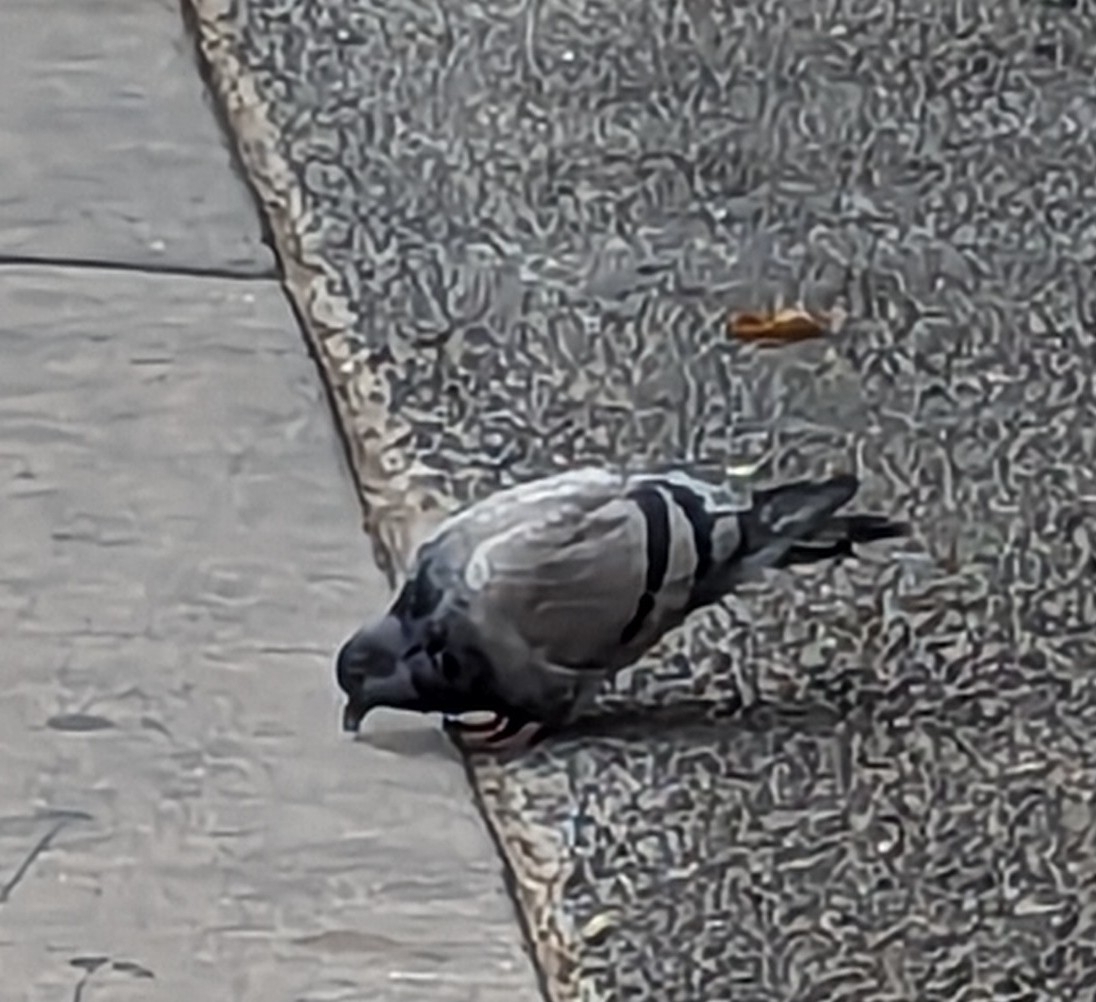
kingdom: Animalia
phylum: Chordata
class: Aves
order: Columbiformes
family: Columbidae
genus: Columba
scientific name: Columba livia
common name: Rock pigeon
